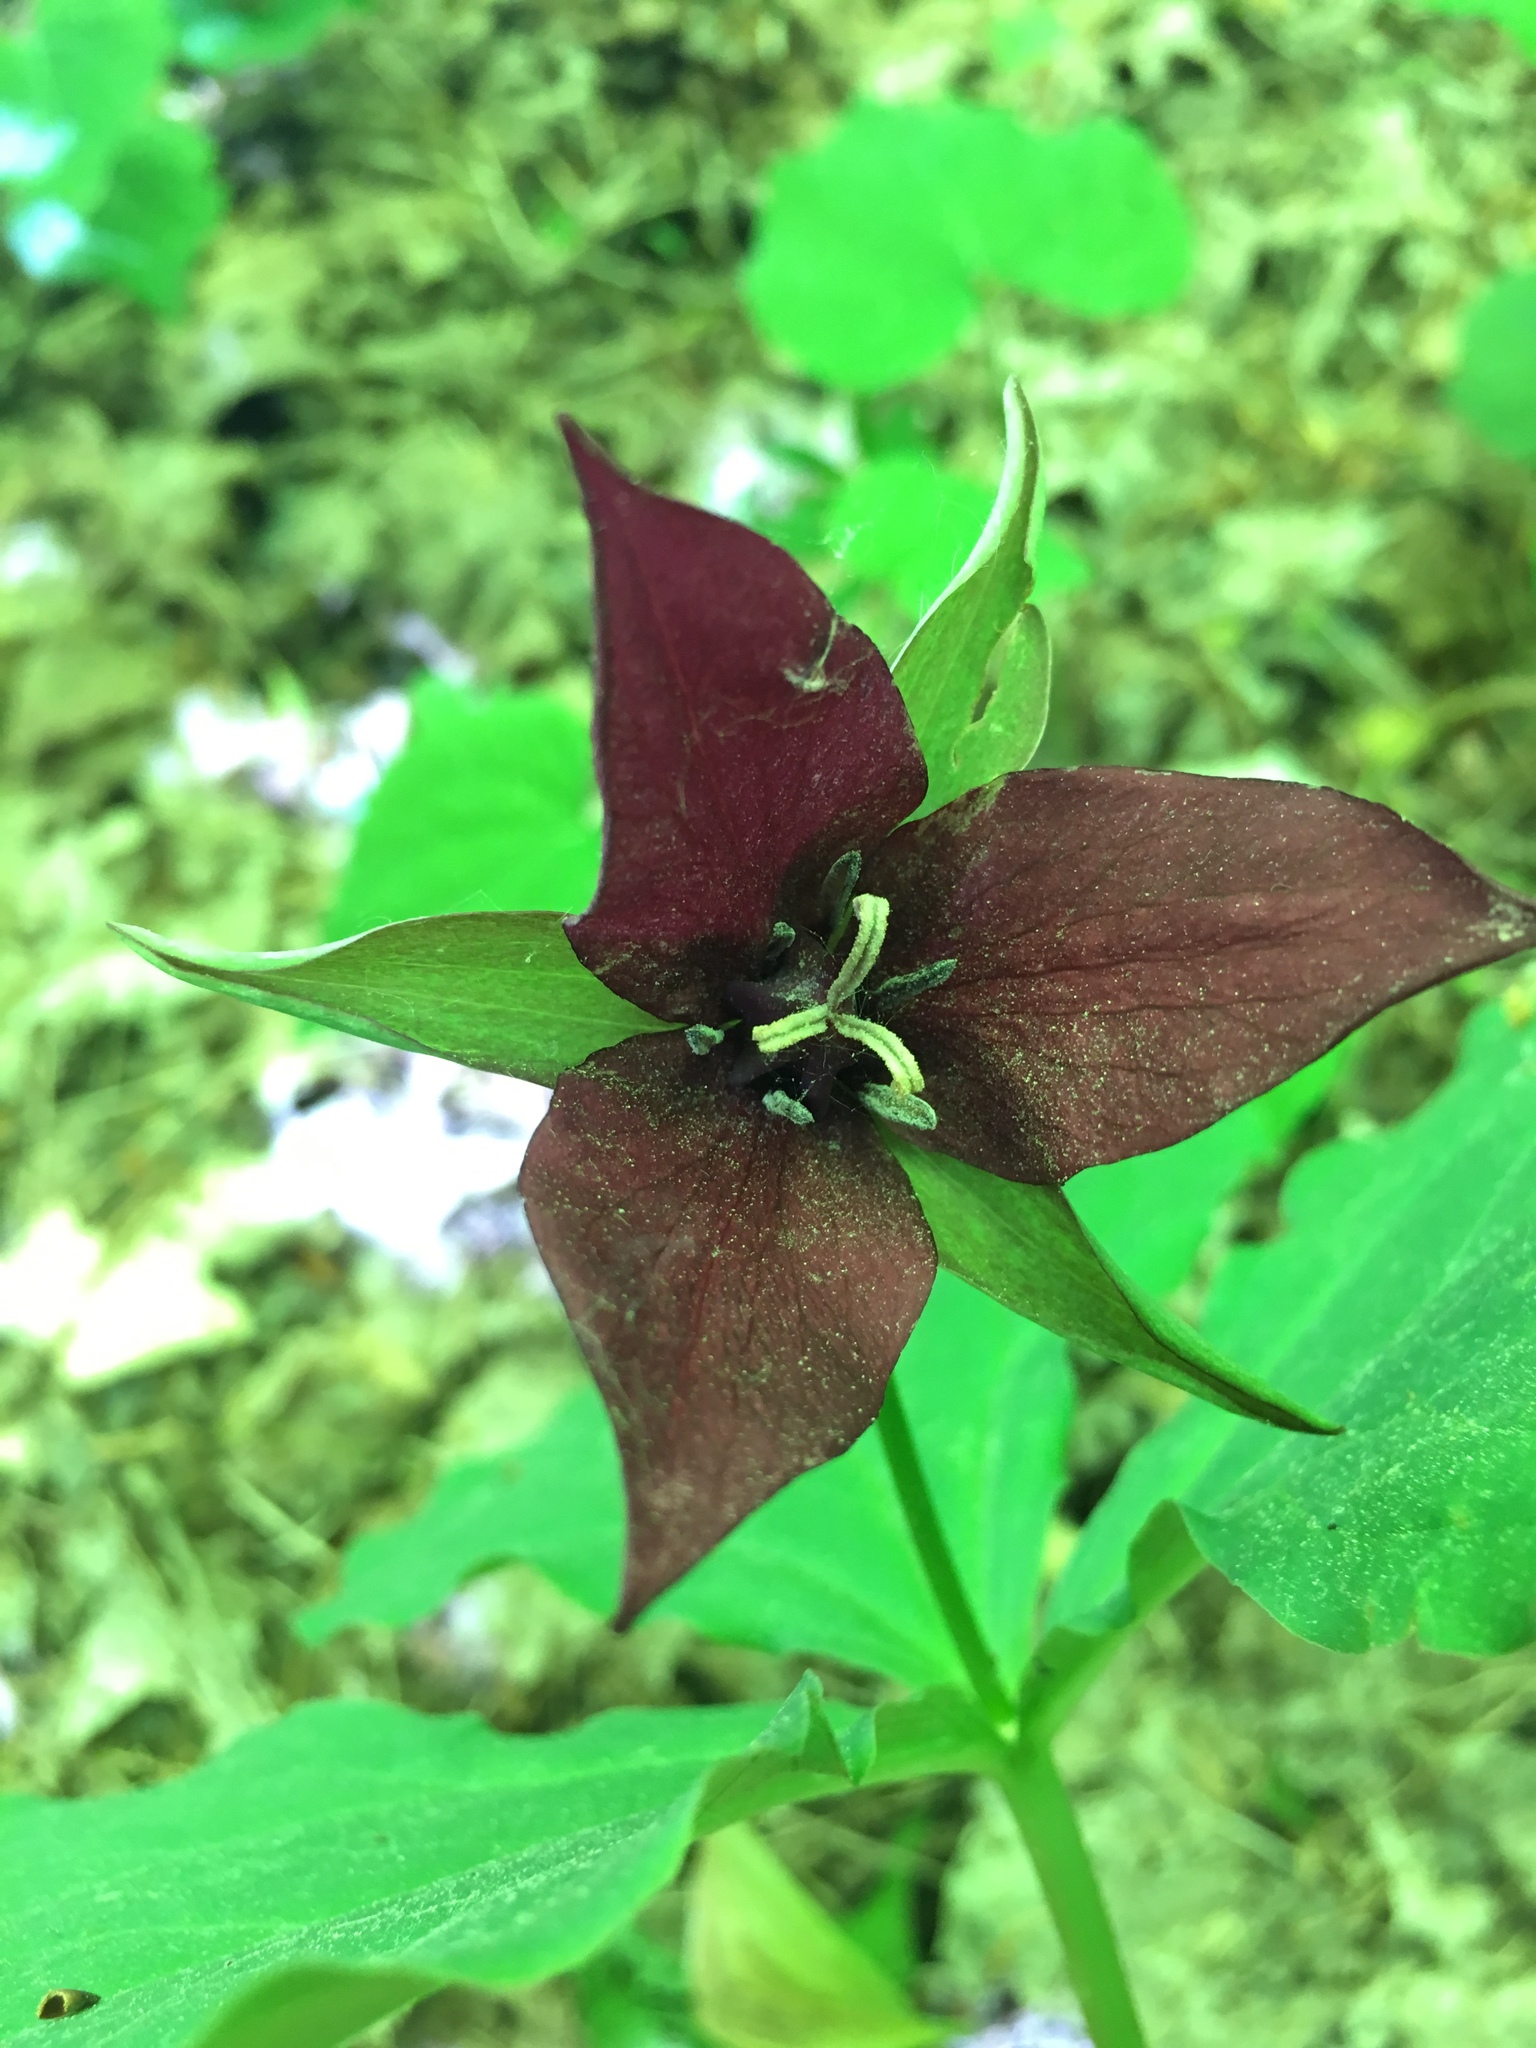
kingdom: Plantae
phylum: Tracheophyta
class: Liliopsida
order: Liliales
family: Melanthiaceae
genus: Trillium
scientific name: Trillium erectum
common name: Purple trillium
